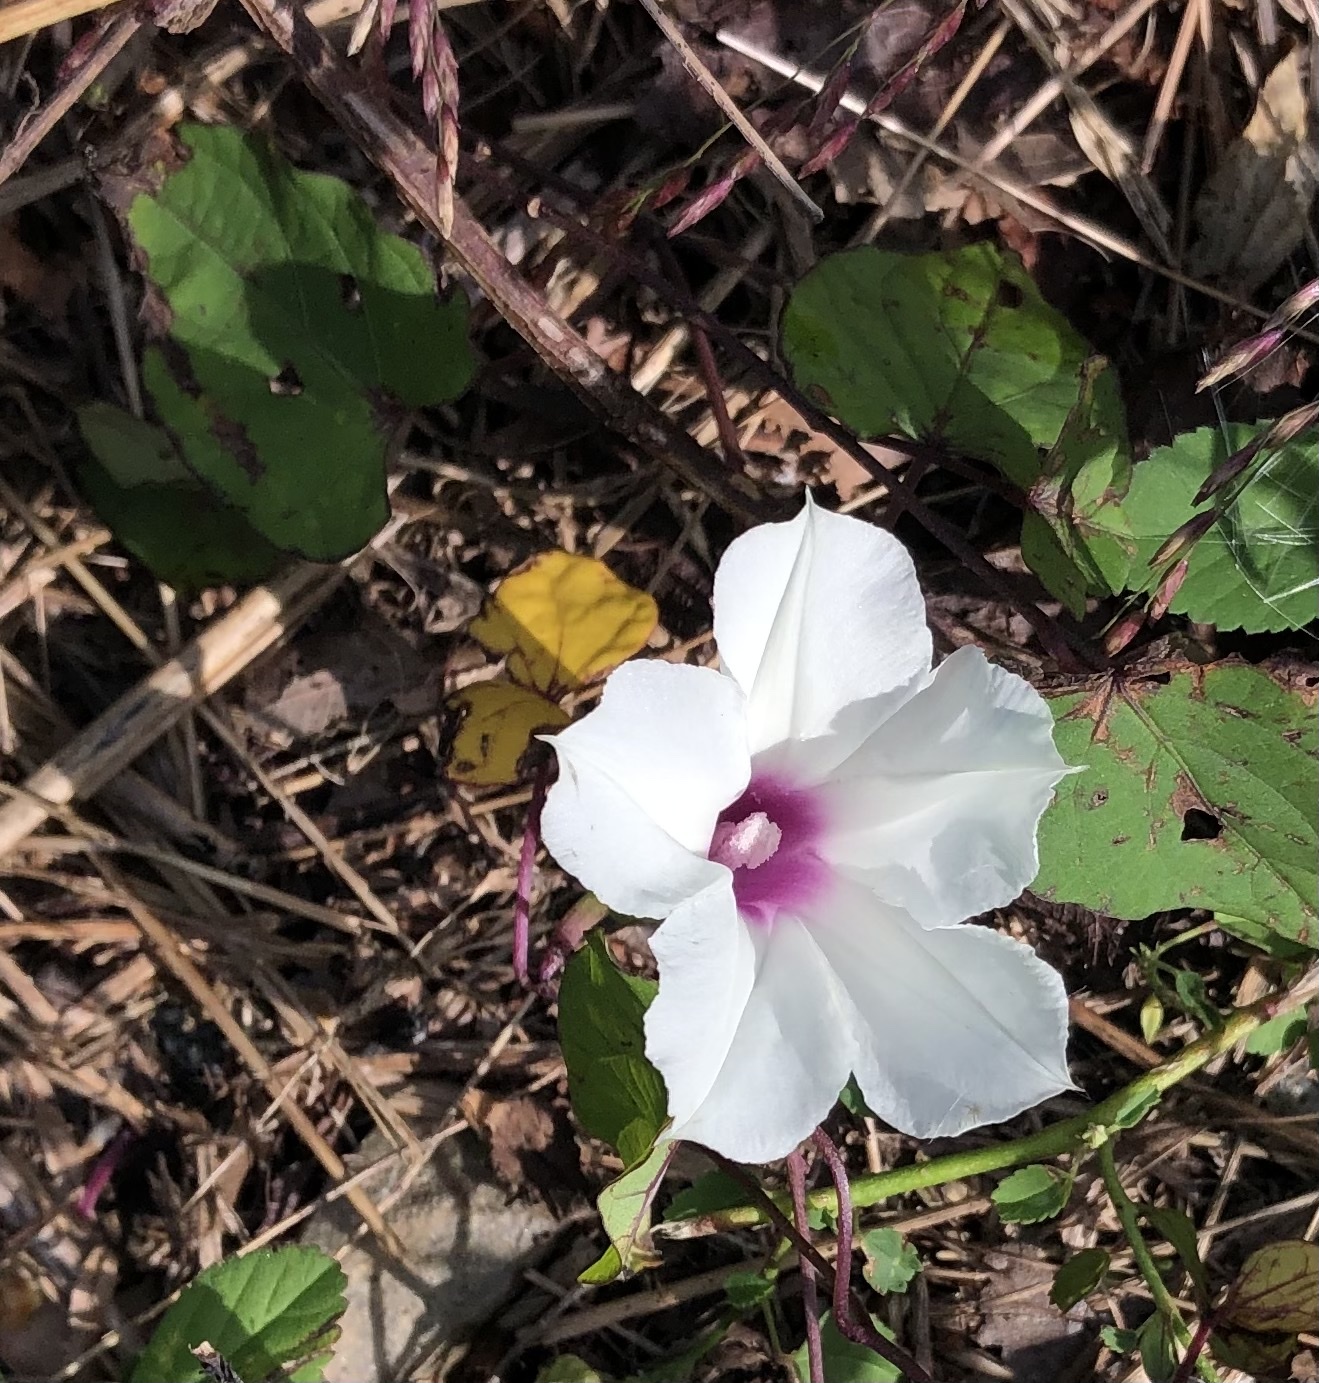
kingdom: Plantae
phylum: Tracheophyta
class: Magnoliopsida
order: Solanales
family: Convolvulaceae
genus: Ipomoea
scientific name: Ipomoea pandurata
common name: Man-of-the-earth
